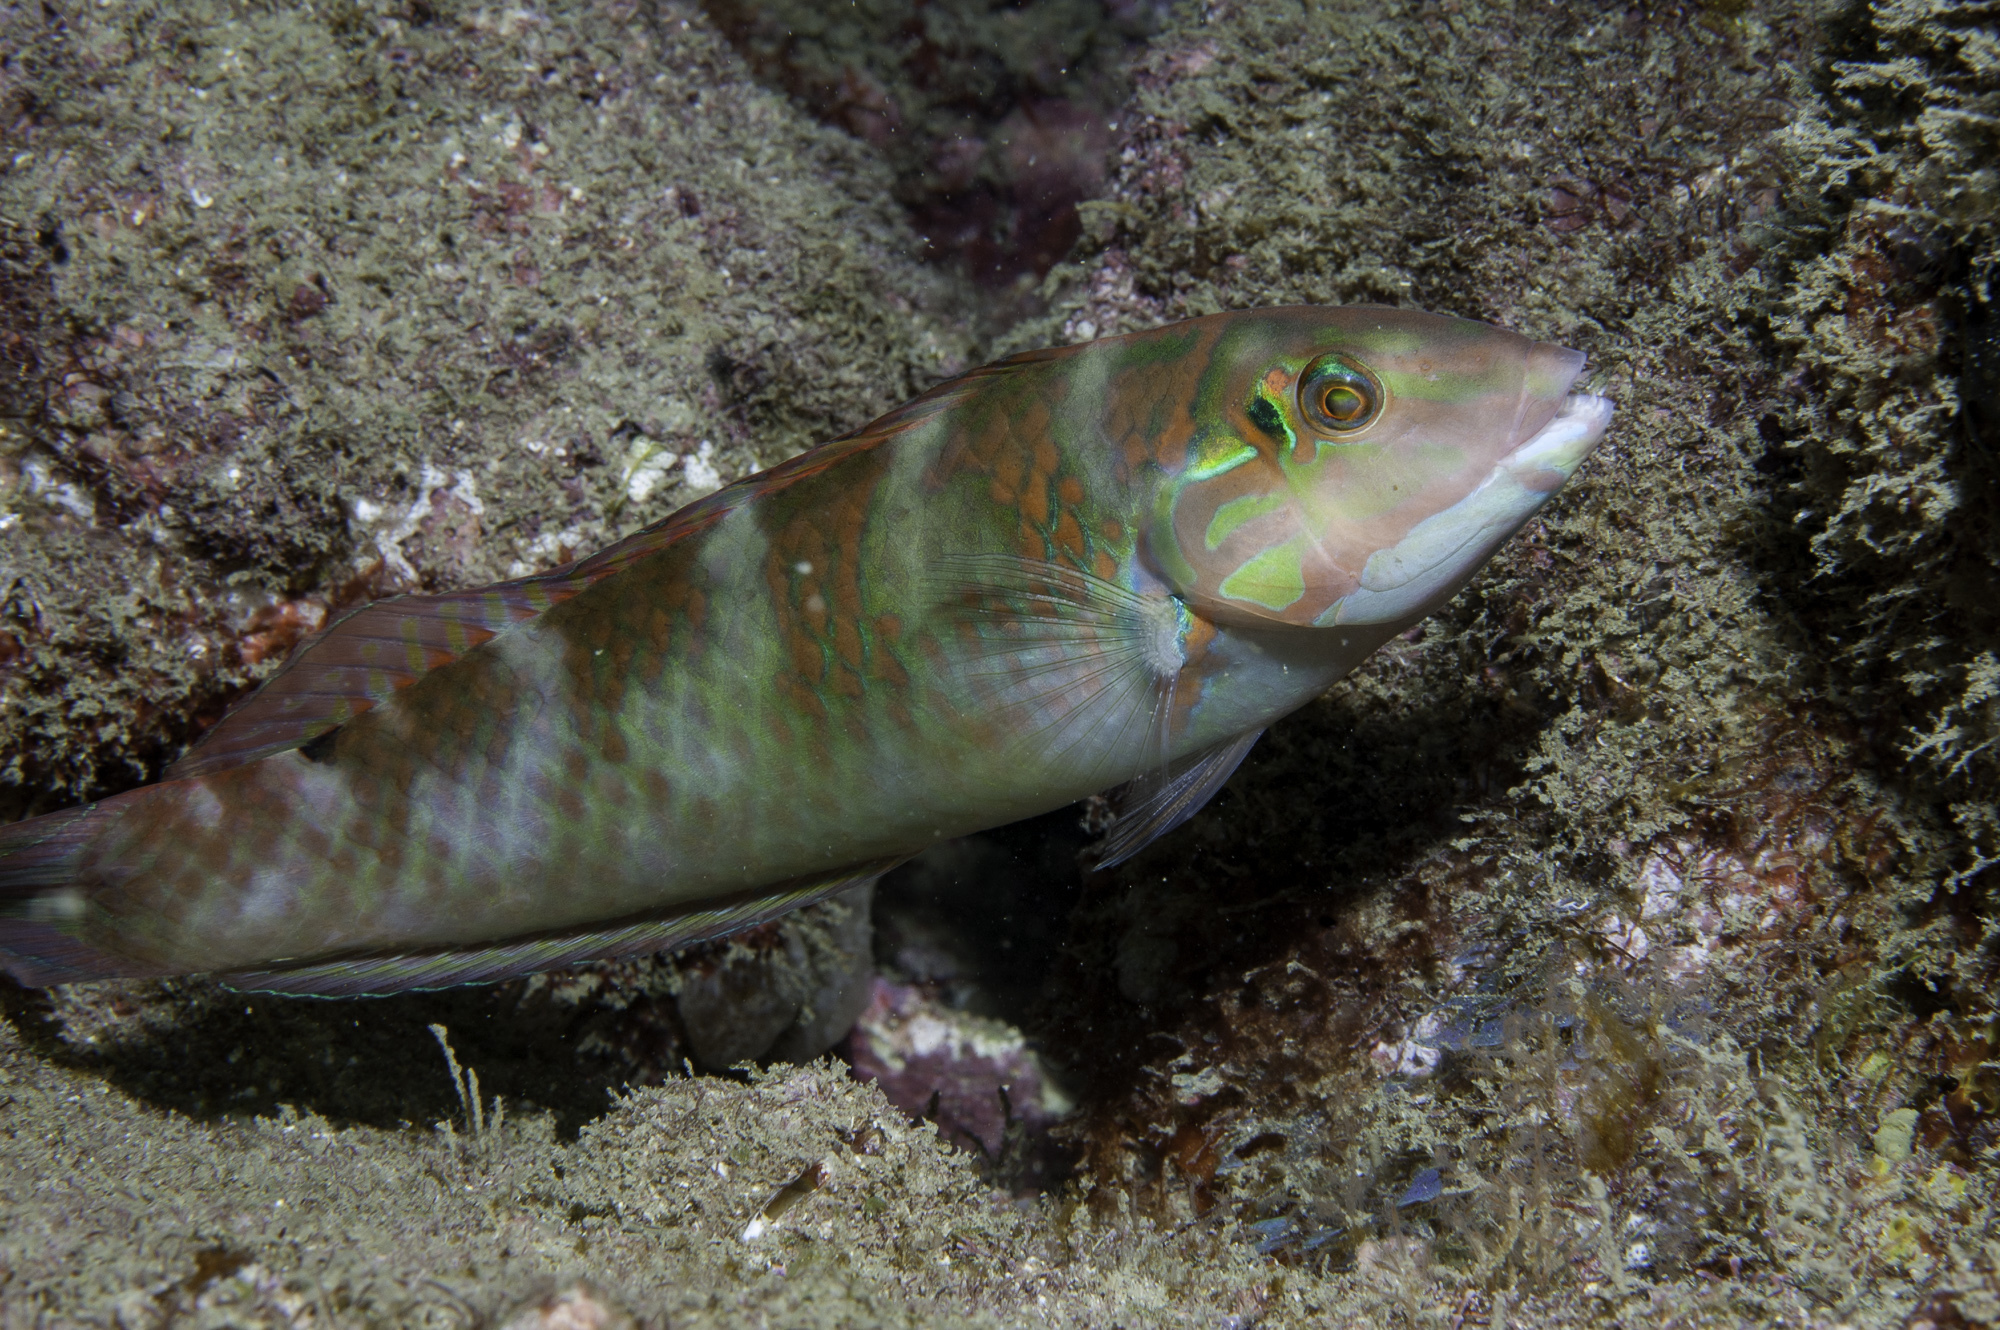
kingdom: Animalia
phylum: Chordata
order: Perciformes
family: Labridae
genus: Halichoeres
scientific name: Halichoeres poeyi
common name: Blackear wrasse
